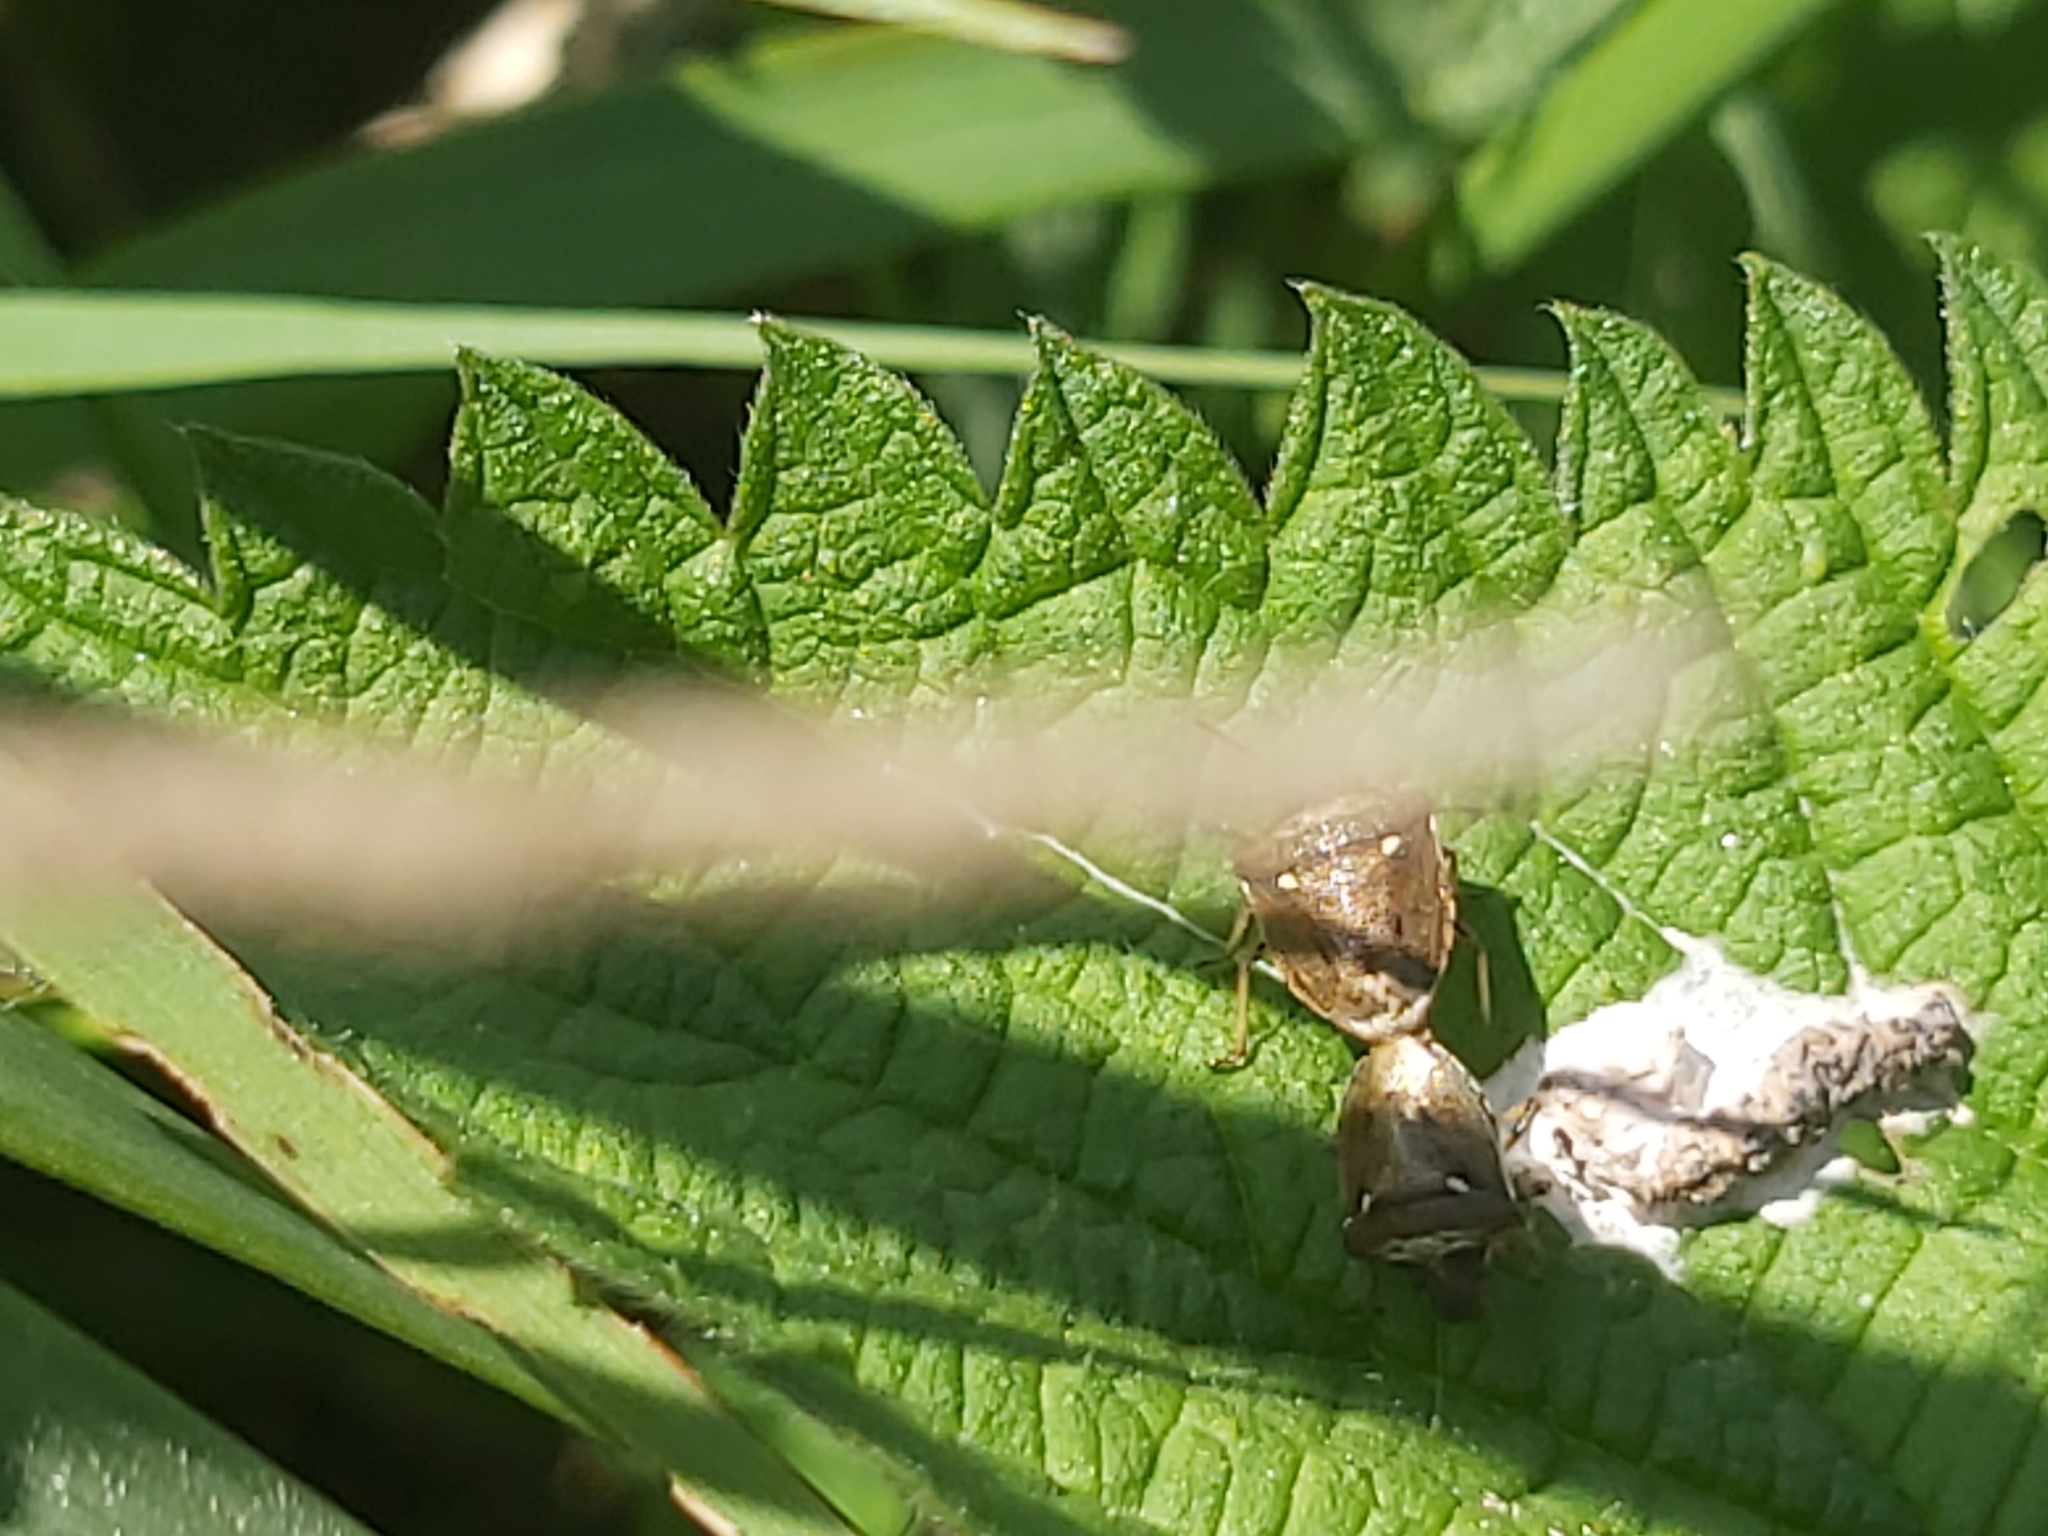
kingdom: Animalia
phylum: Arthropoda
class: Insecta
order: Hemiptera
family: Pentatomidae
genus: Eysarcoris
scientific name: Eysarcoris aeneus
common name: New forest shieldbug
